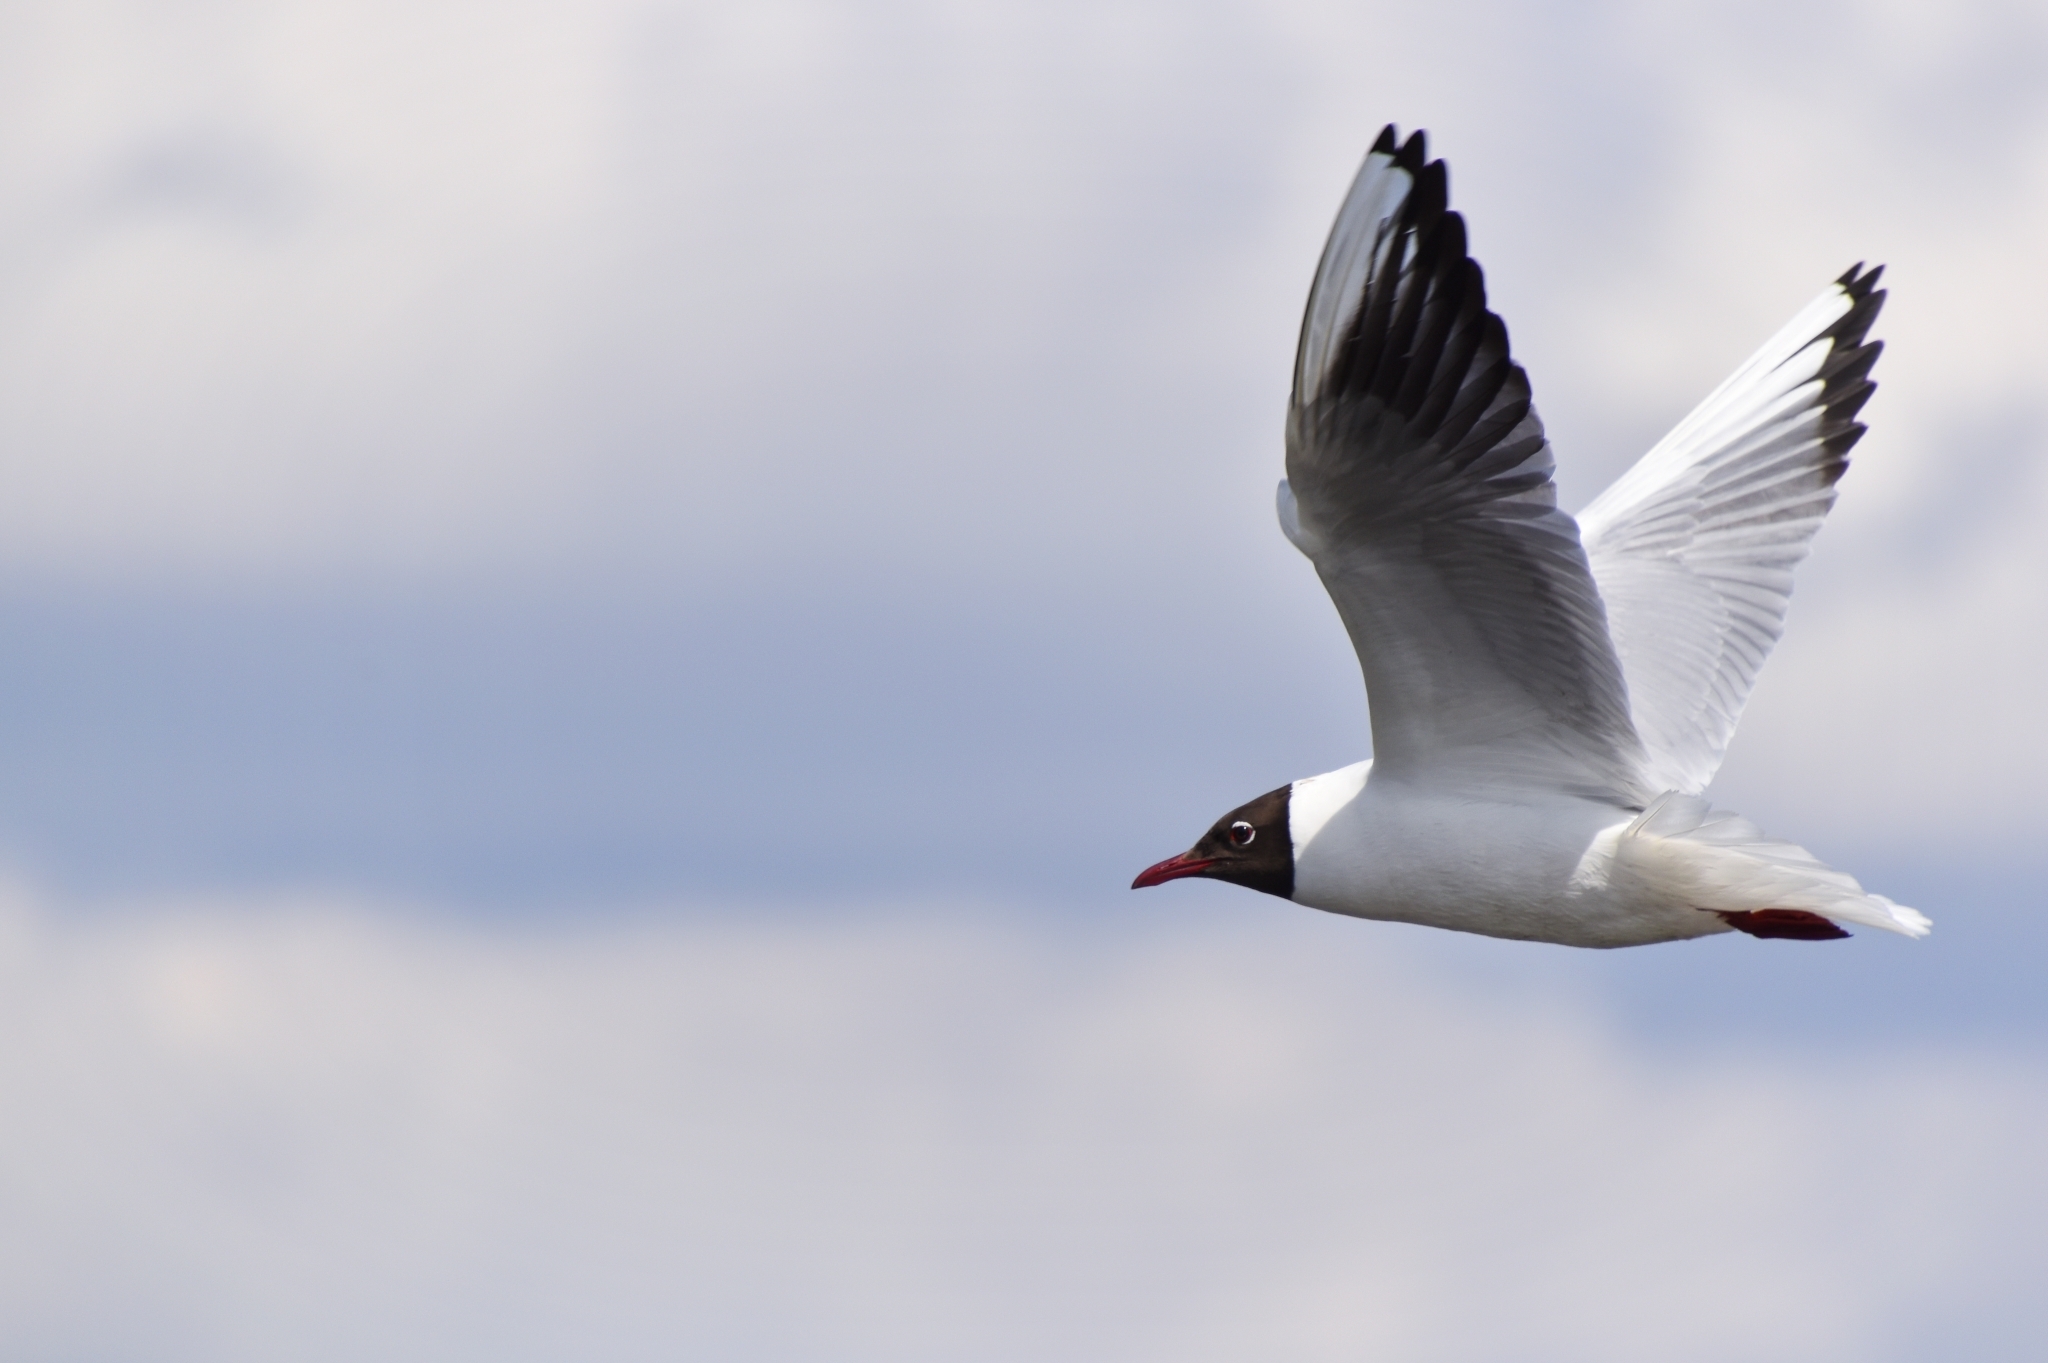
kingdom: Animalia
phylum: Chordata
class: Aves
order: Charadriiformes
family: Laridae
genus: Chroicocephalus
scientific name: Chroicocephalus ridibundus
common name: Black-headed gull
